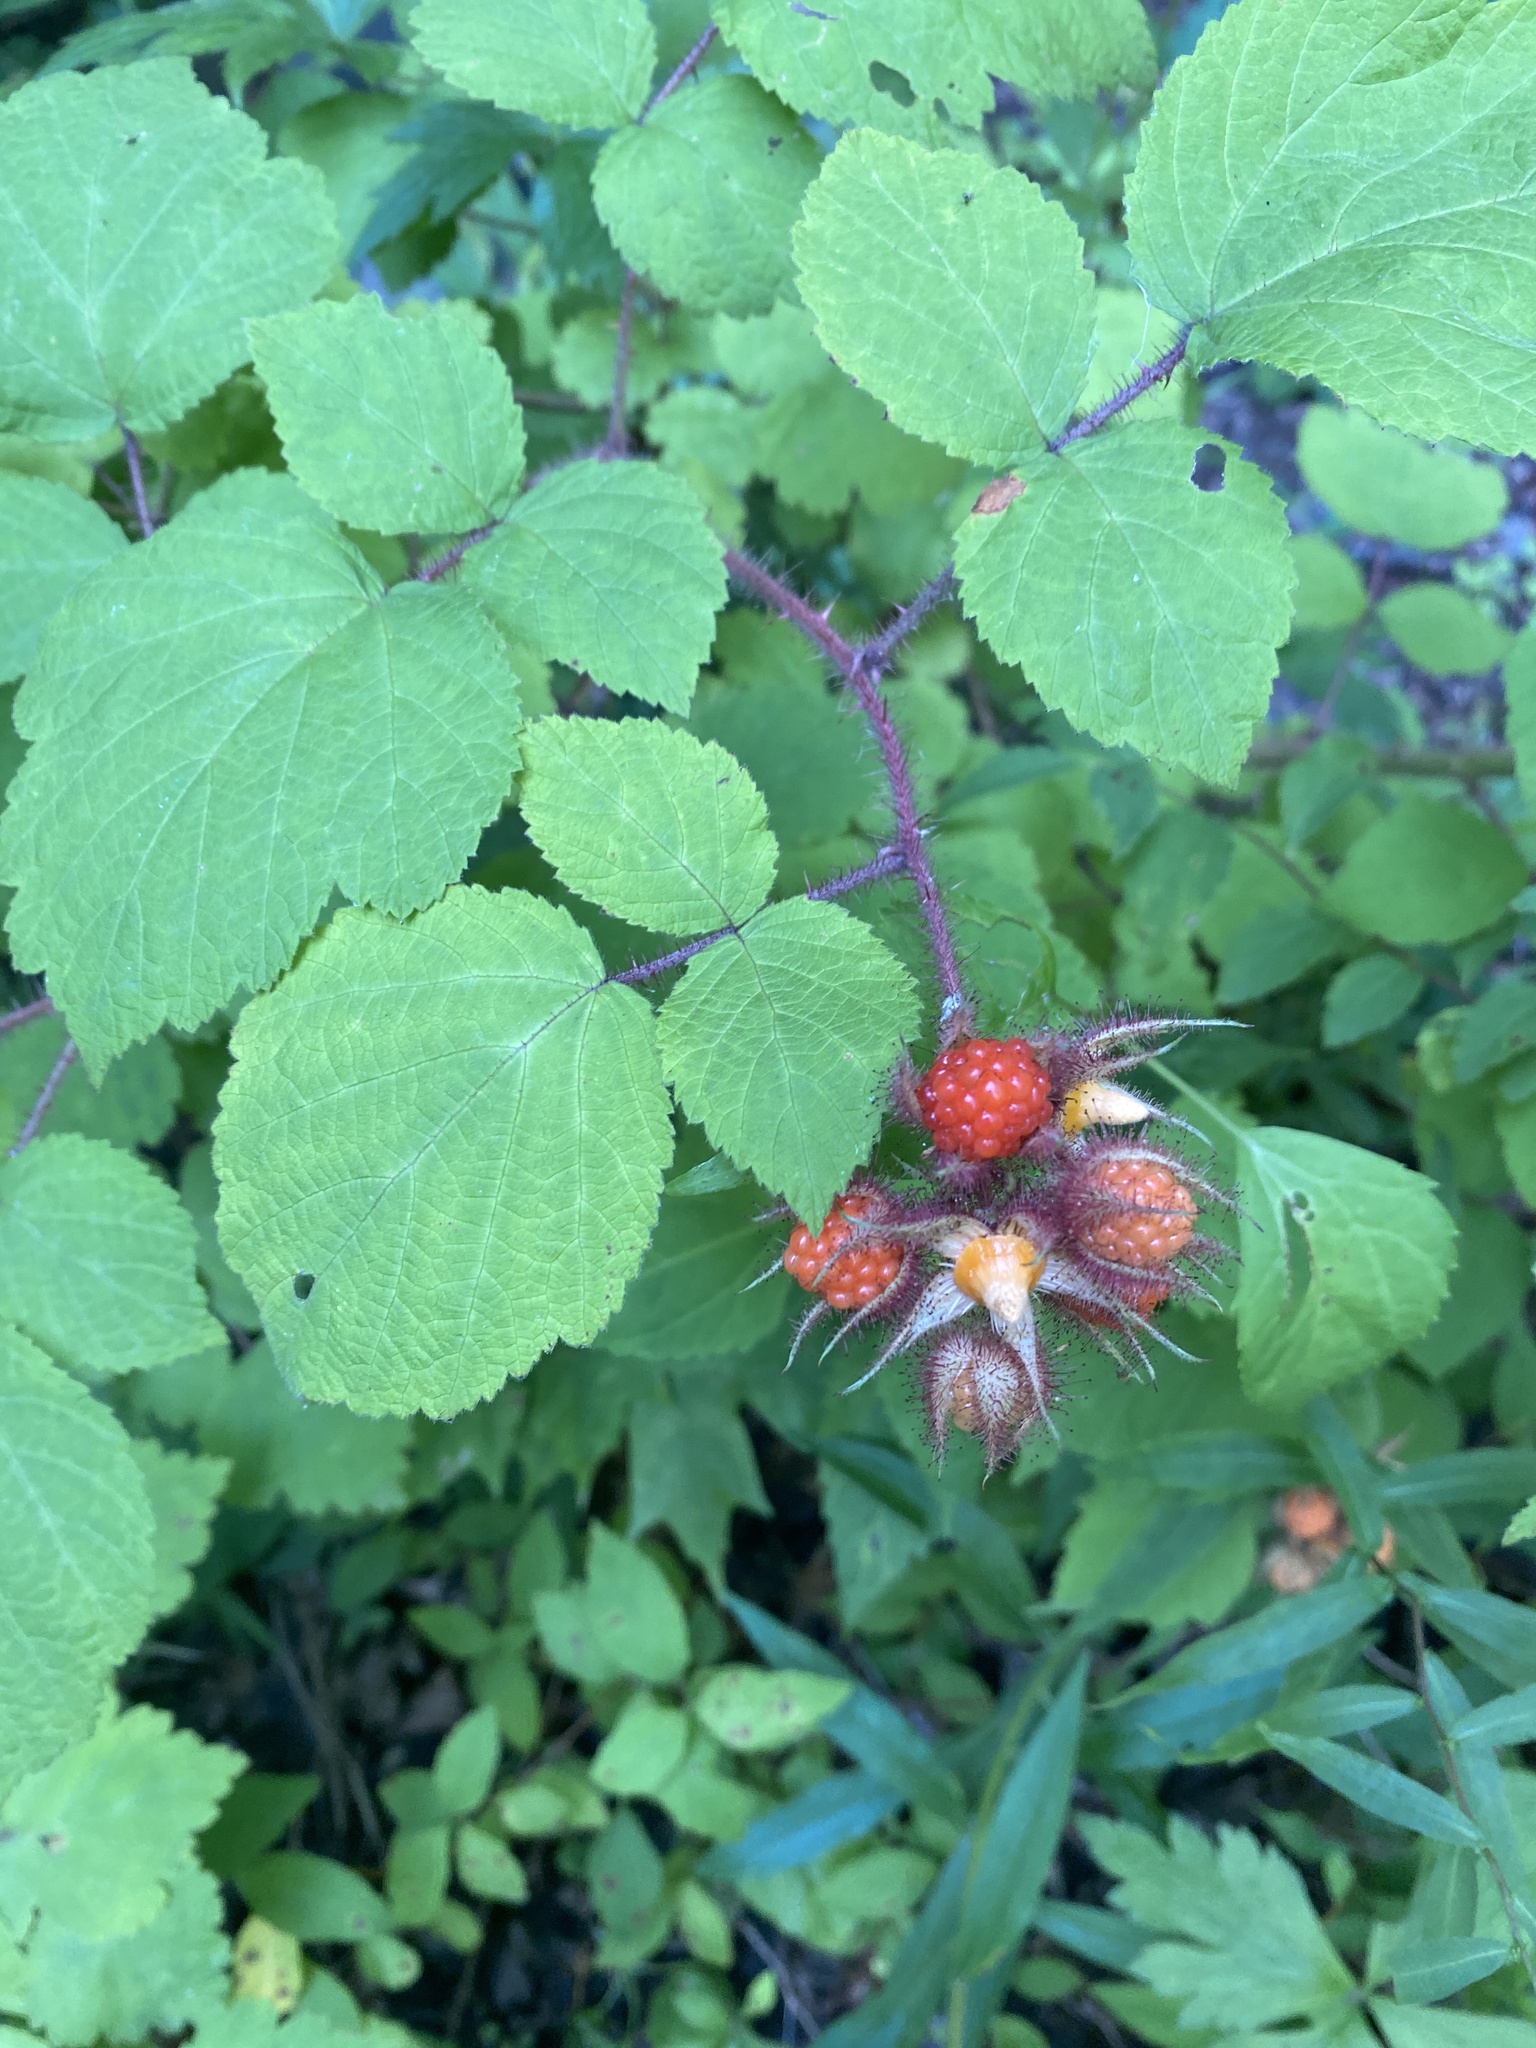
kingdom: Plantae
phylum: Tracheophyta
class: Magnoliopsida
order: Rosales
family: Rosaceae
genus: Rubus
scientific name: Rubus phoenicolasius
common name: Japanese wineberry
